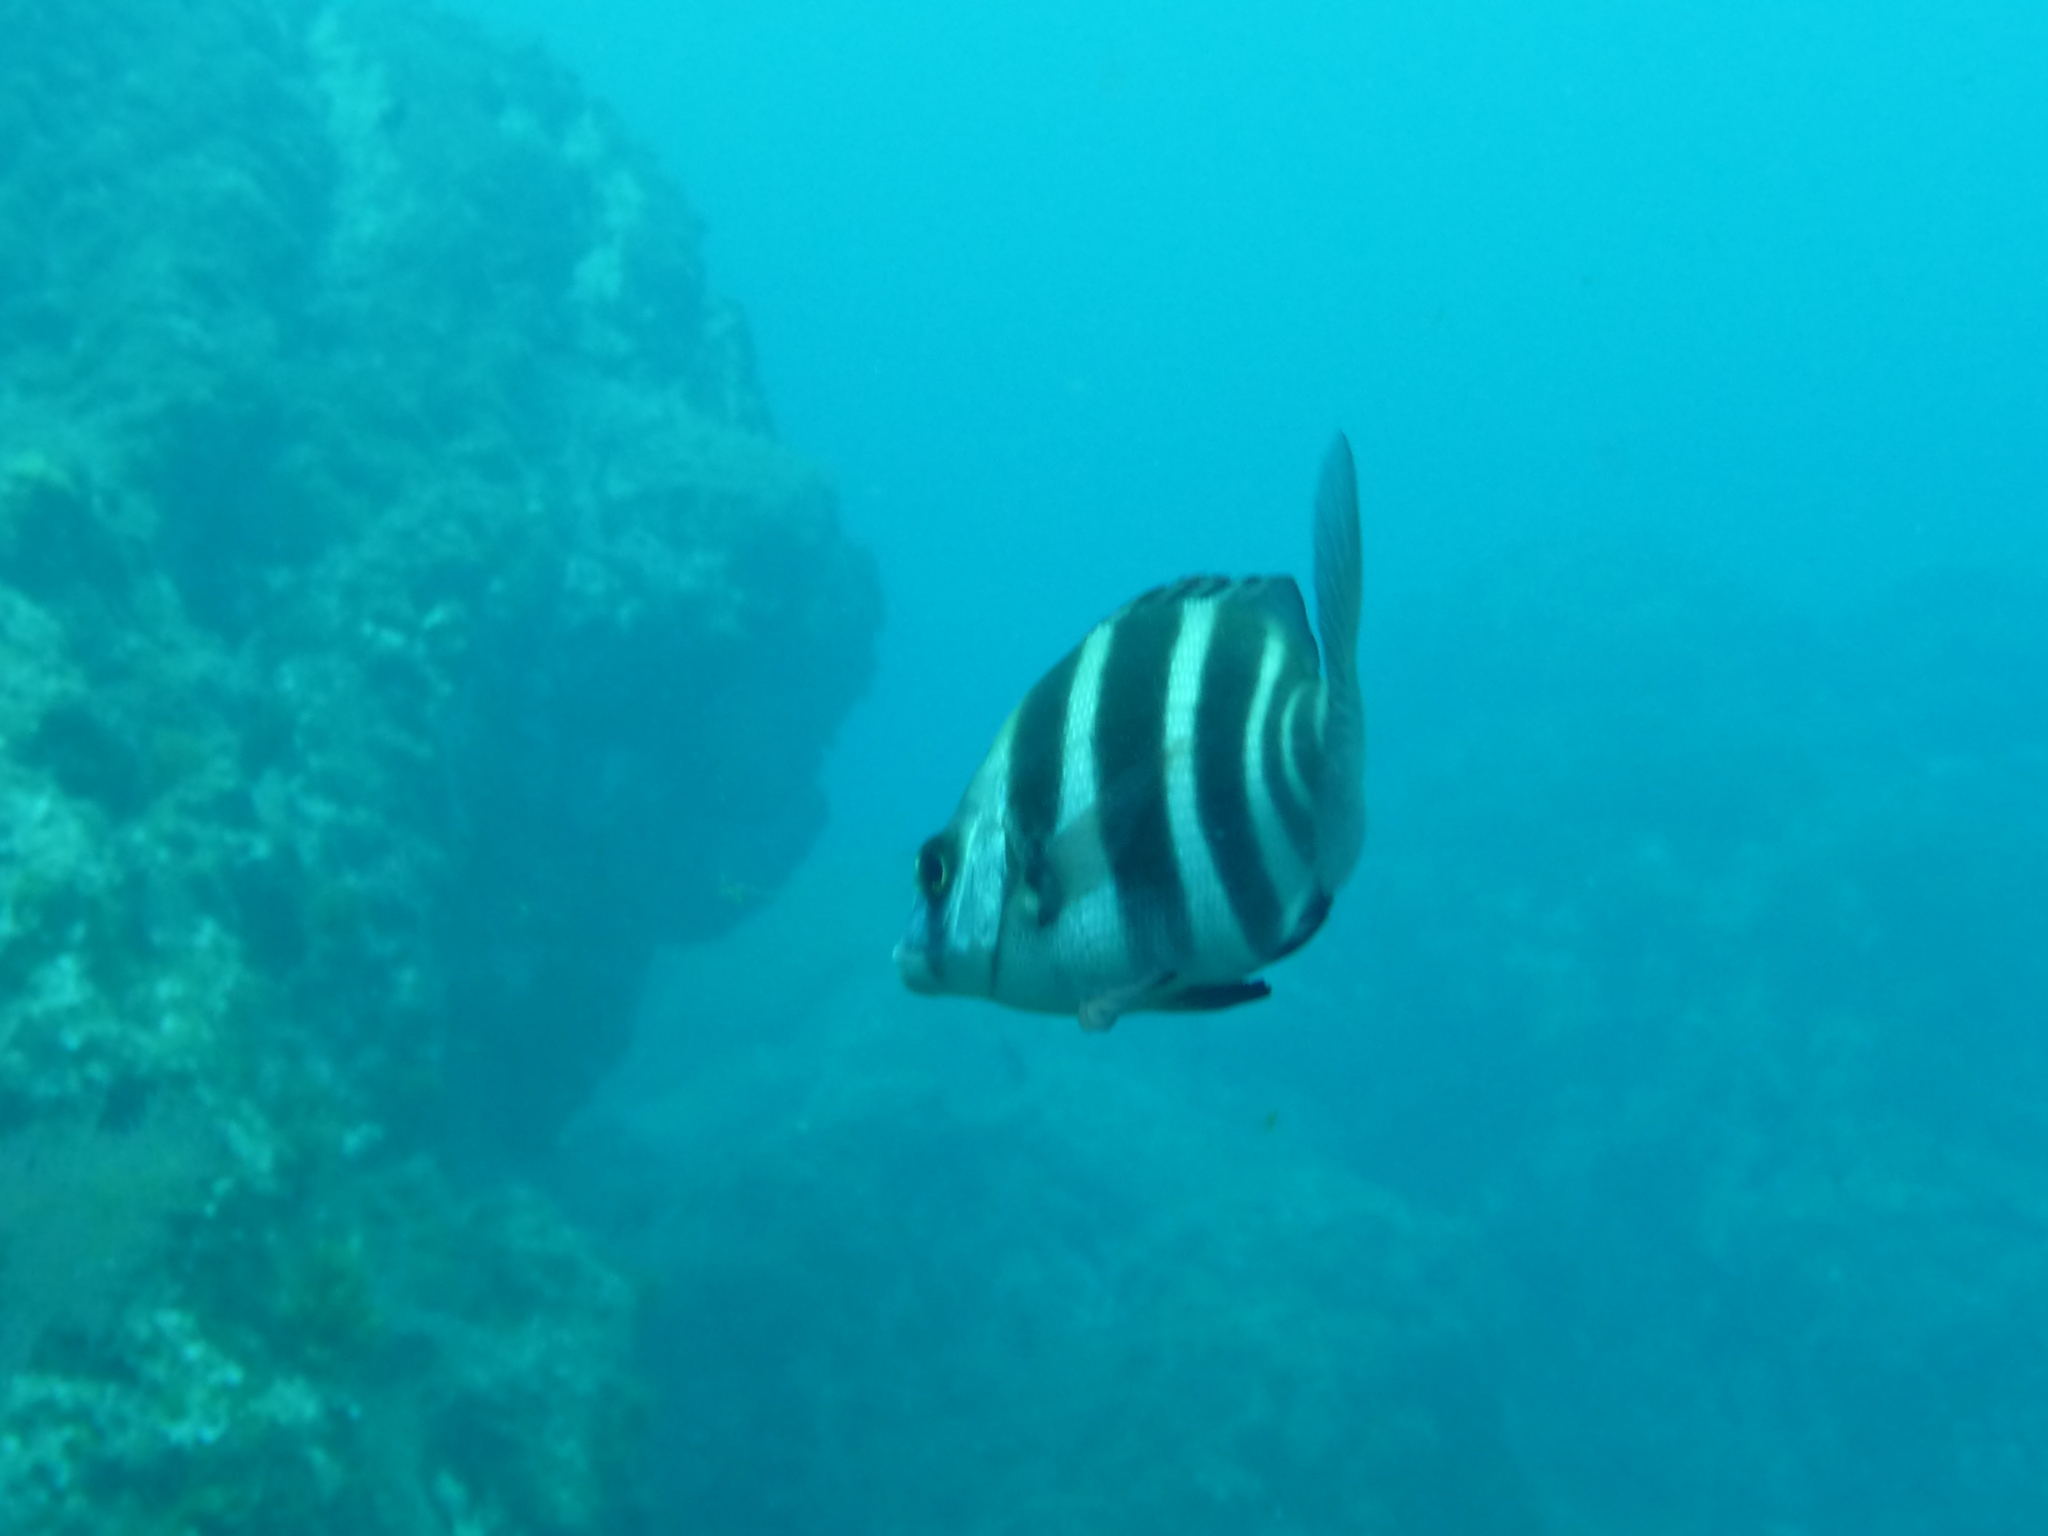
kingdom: Animalia
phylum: Chordata
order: Perciformes
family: Sparidae
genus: Diplodus
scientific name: Diplodus cervinus
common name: Oman porgy
